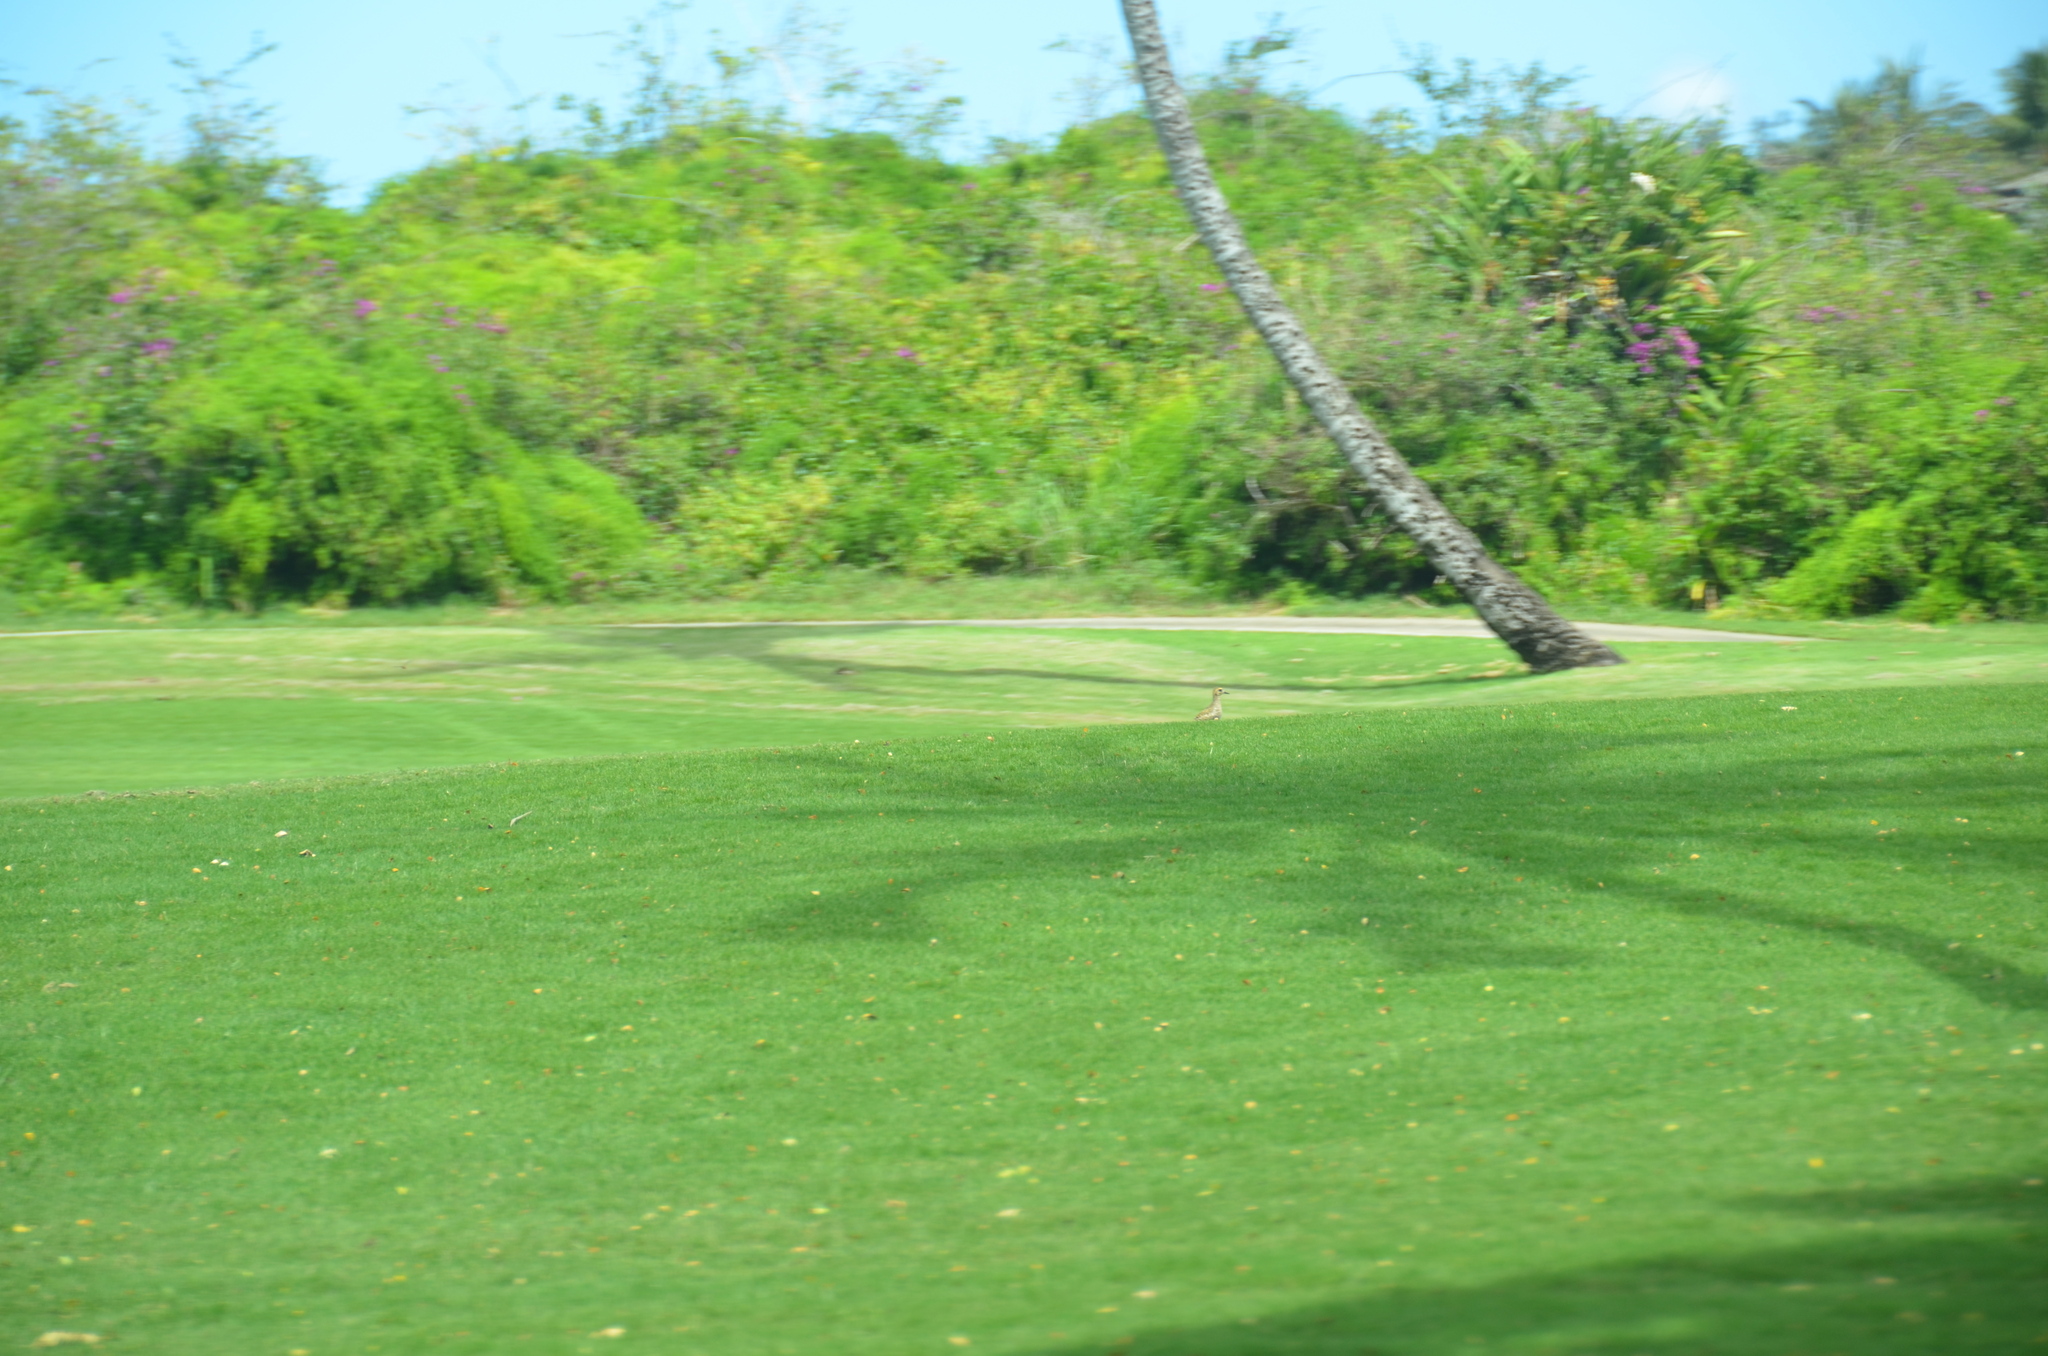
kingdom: Animalia
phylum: Chordata
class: Aves
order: Charadriiformes
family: Charadriidae
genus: Pluvialis
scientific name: Pluvialis fulva
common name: Pacific golden plover
